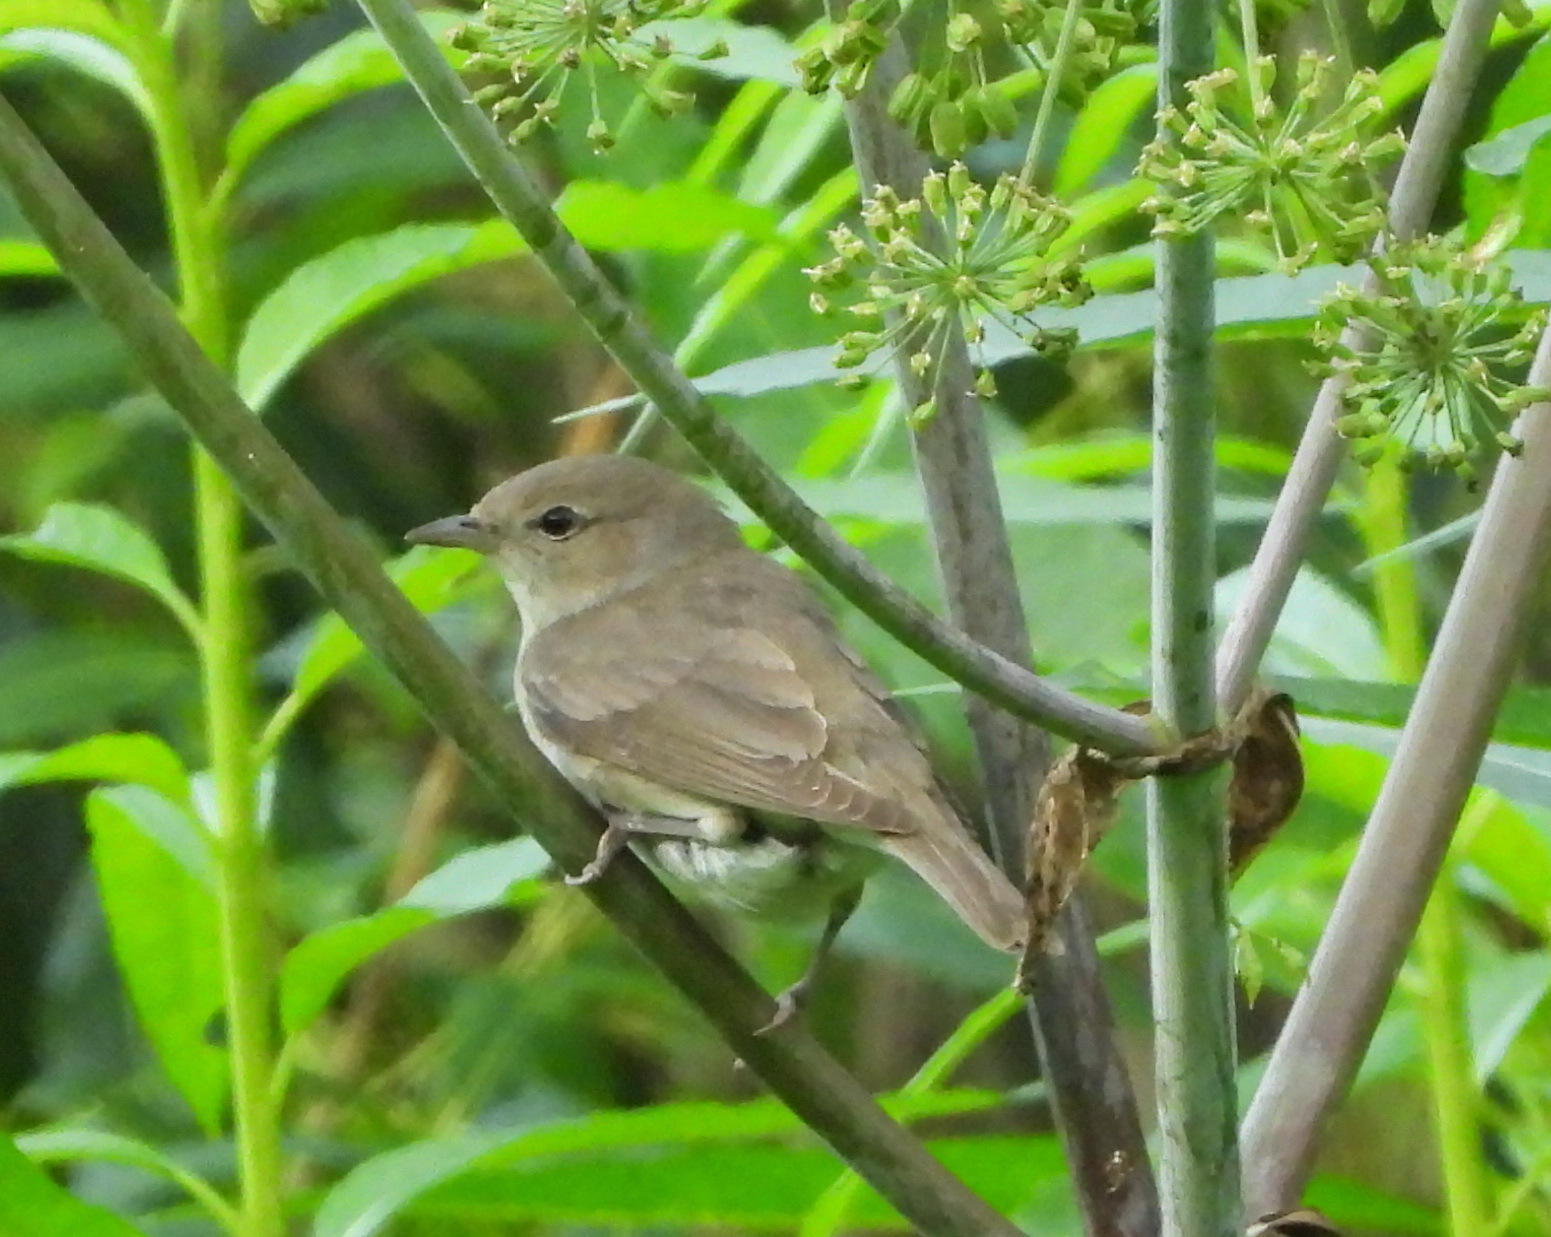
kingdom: Animalia
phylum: Chordata
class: Aves
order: Passeriformes
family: Sylviidae
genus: Sylvia
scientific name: Sylvia borin
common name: Garden warbler
